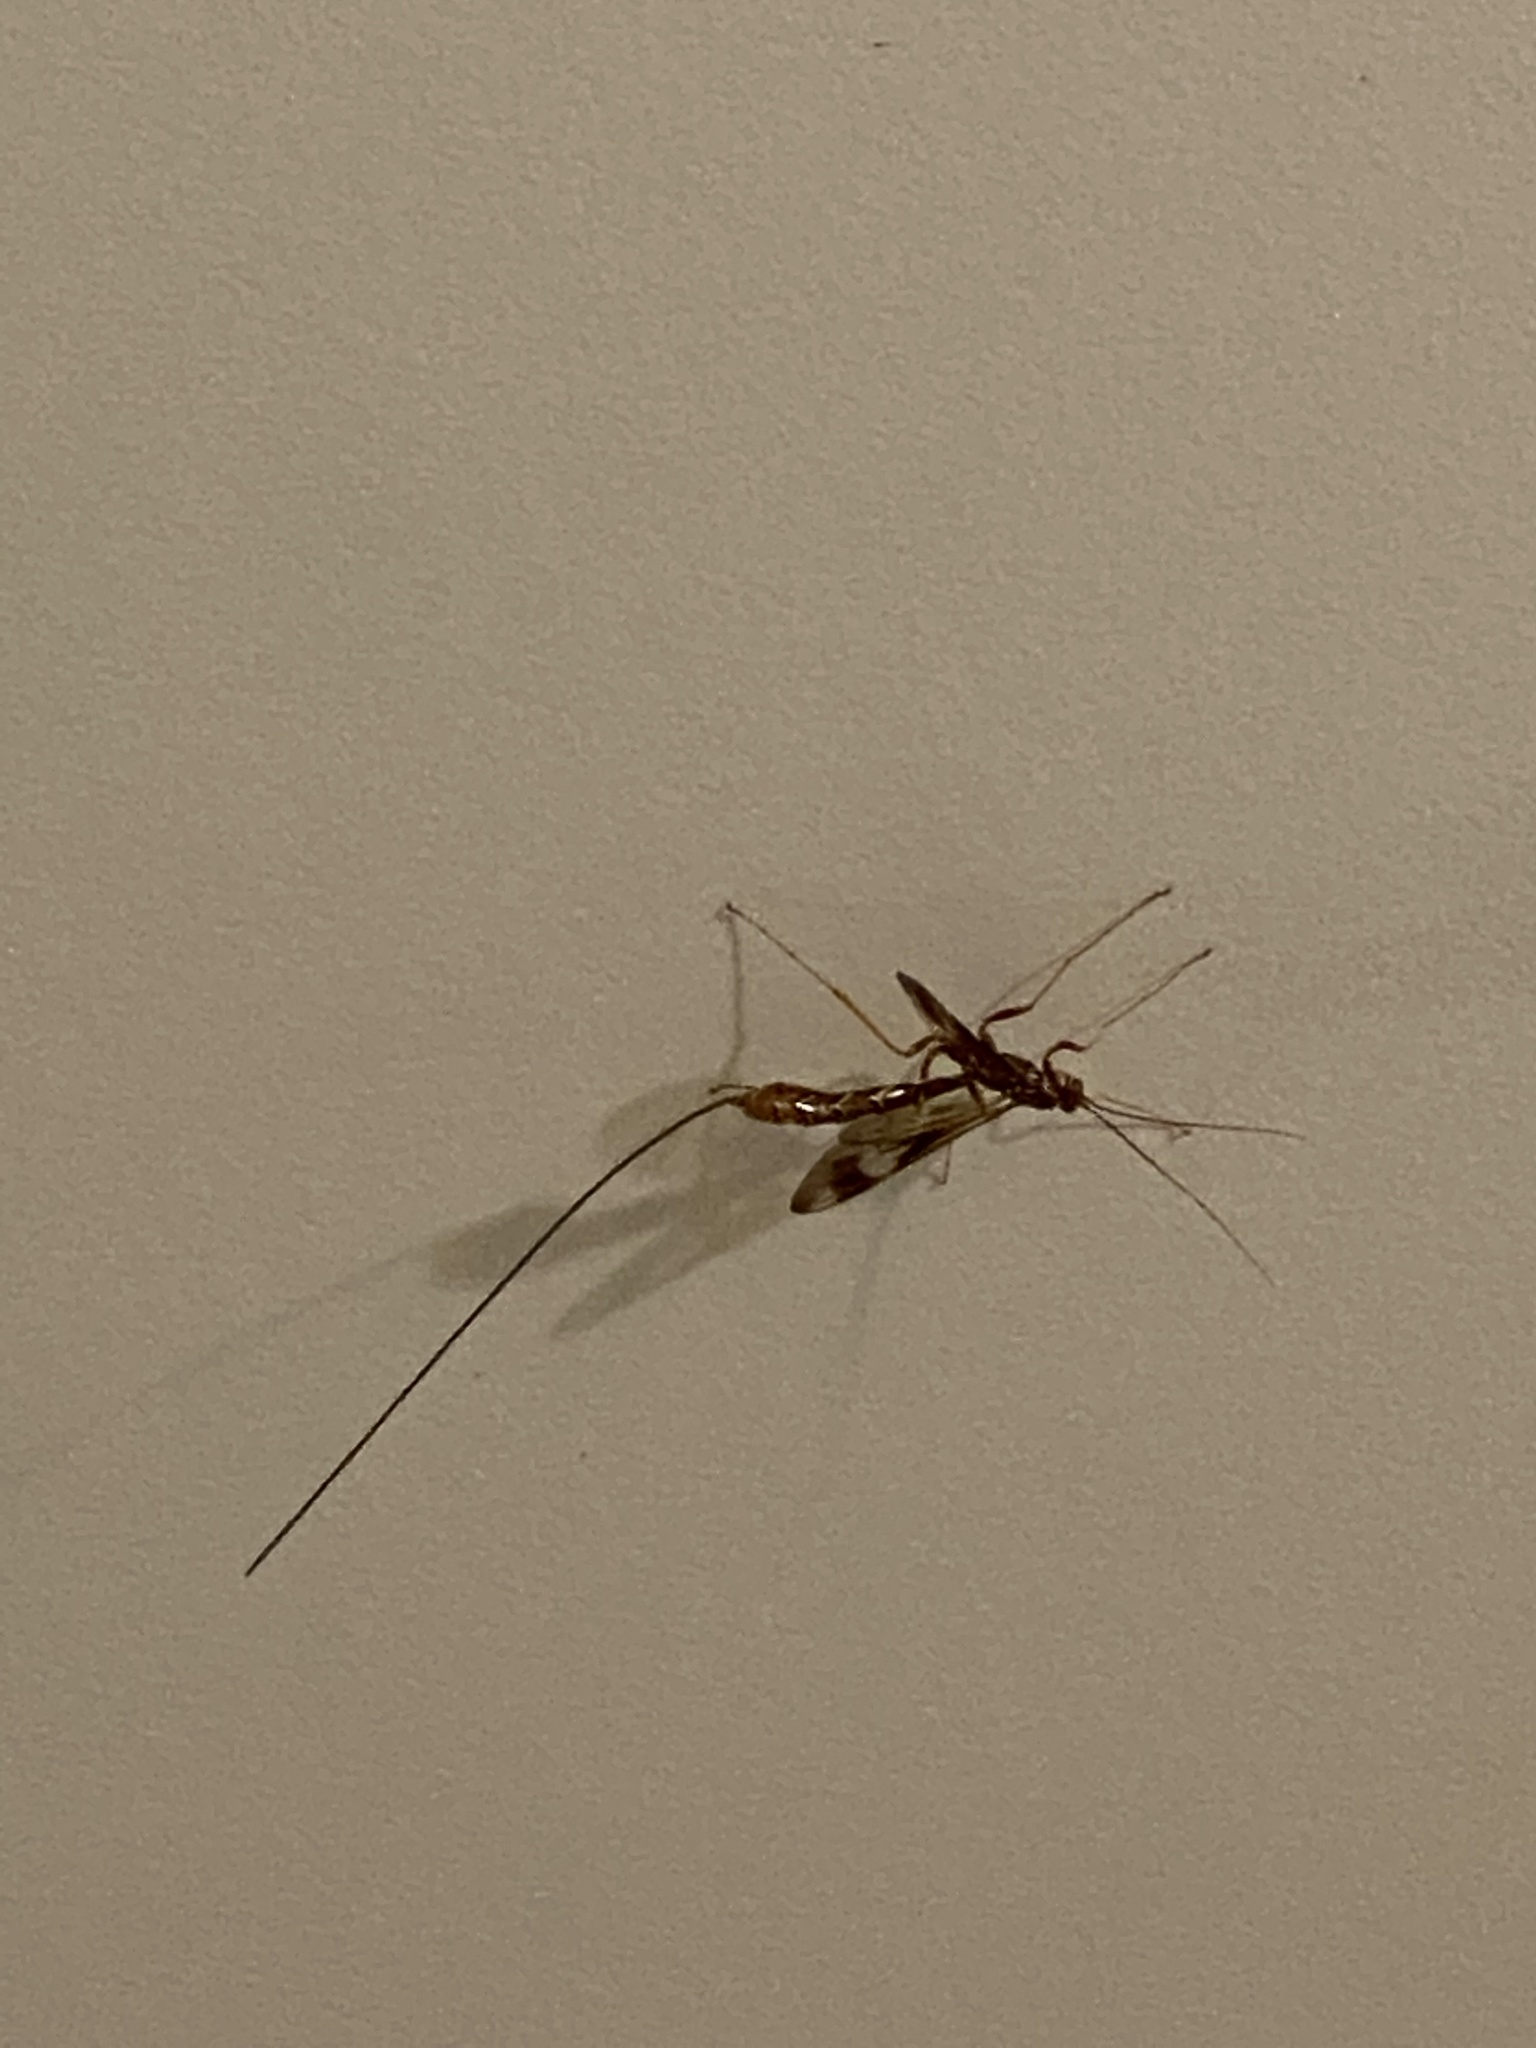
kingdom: Animalia
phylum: Arthropoda
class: Insecta
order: Hymenoptera
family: Ichneumonidae
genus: Megarhyssa
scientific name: Megarhyssa macrura
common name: Long-tailed giant ichneumonid wasp
